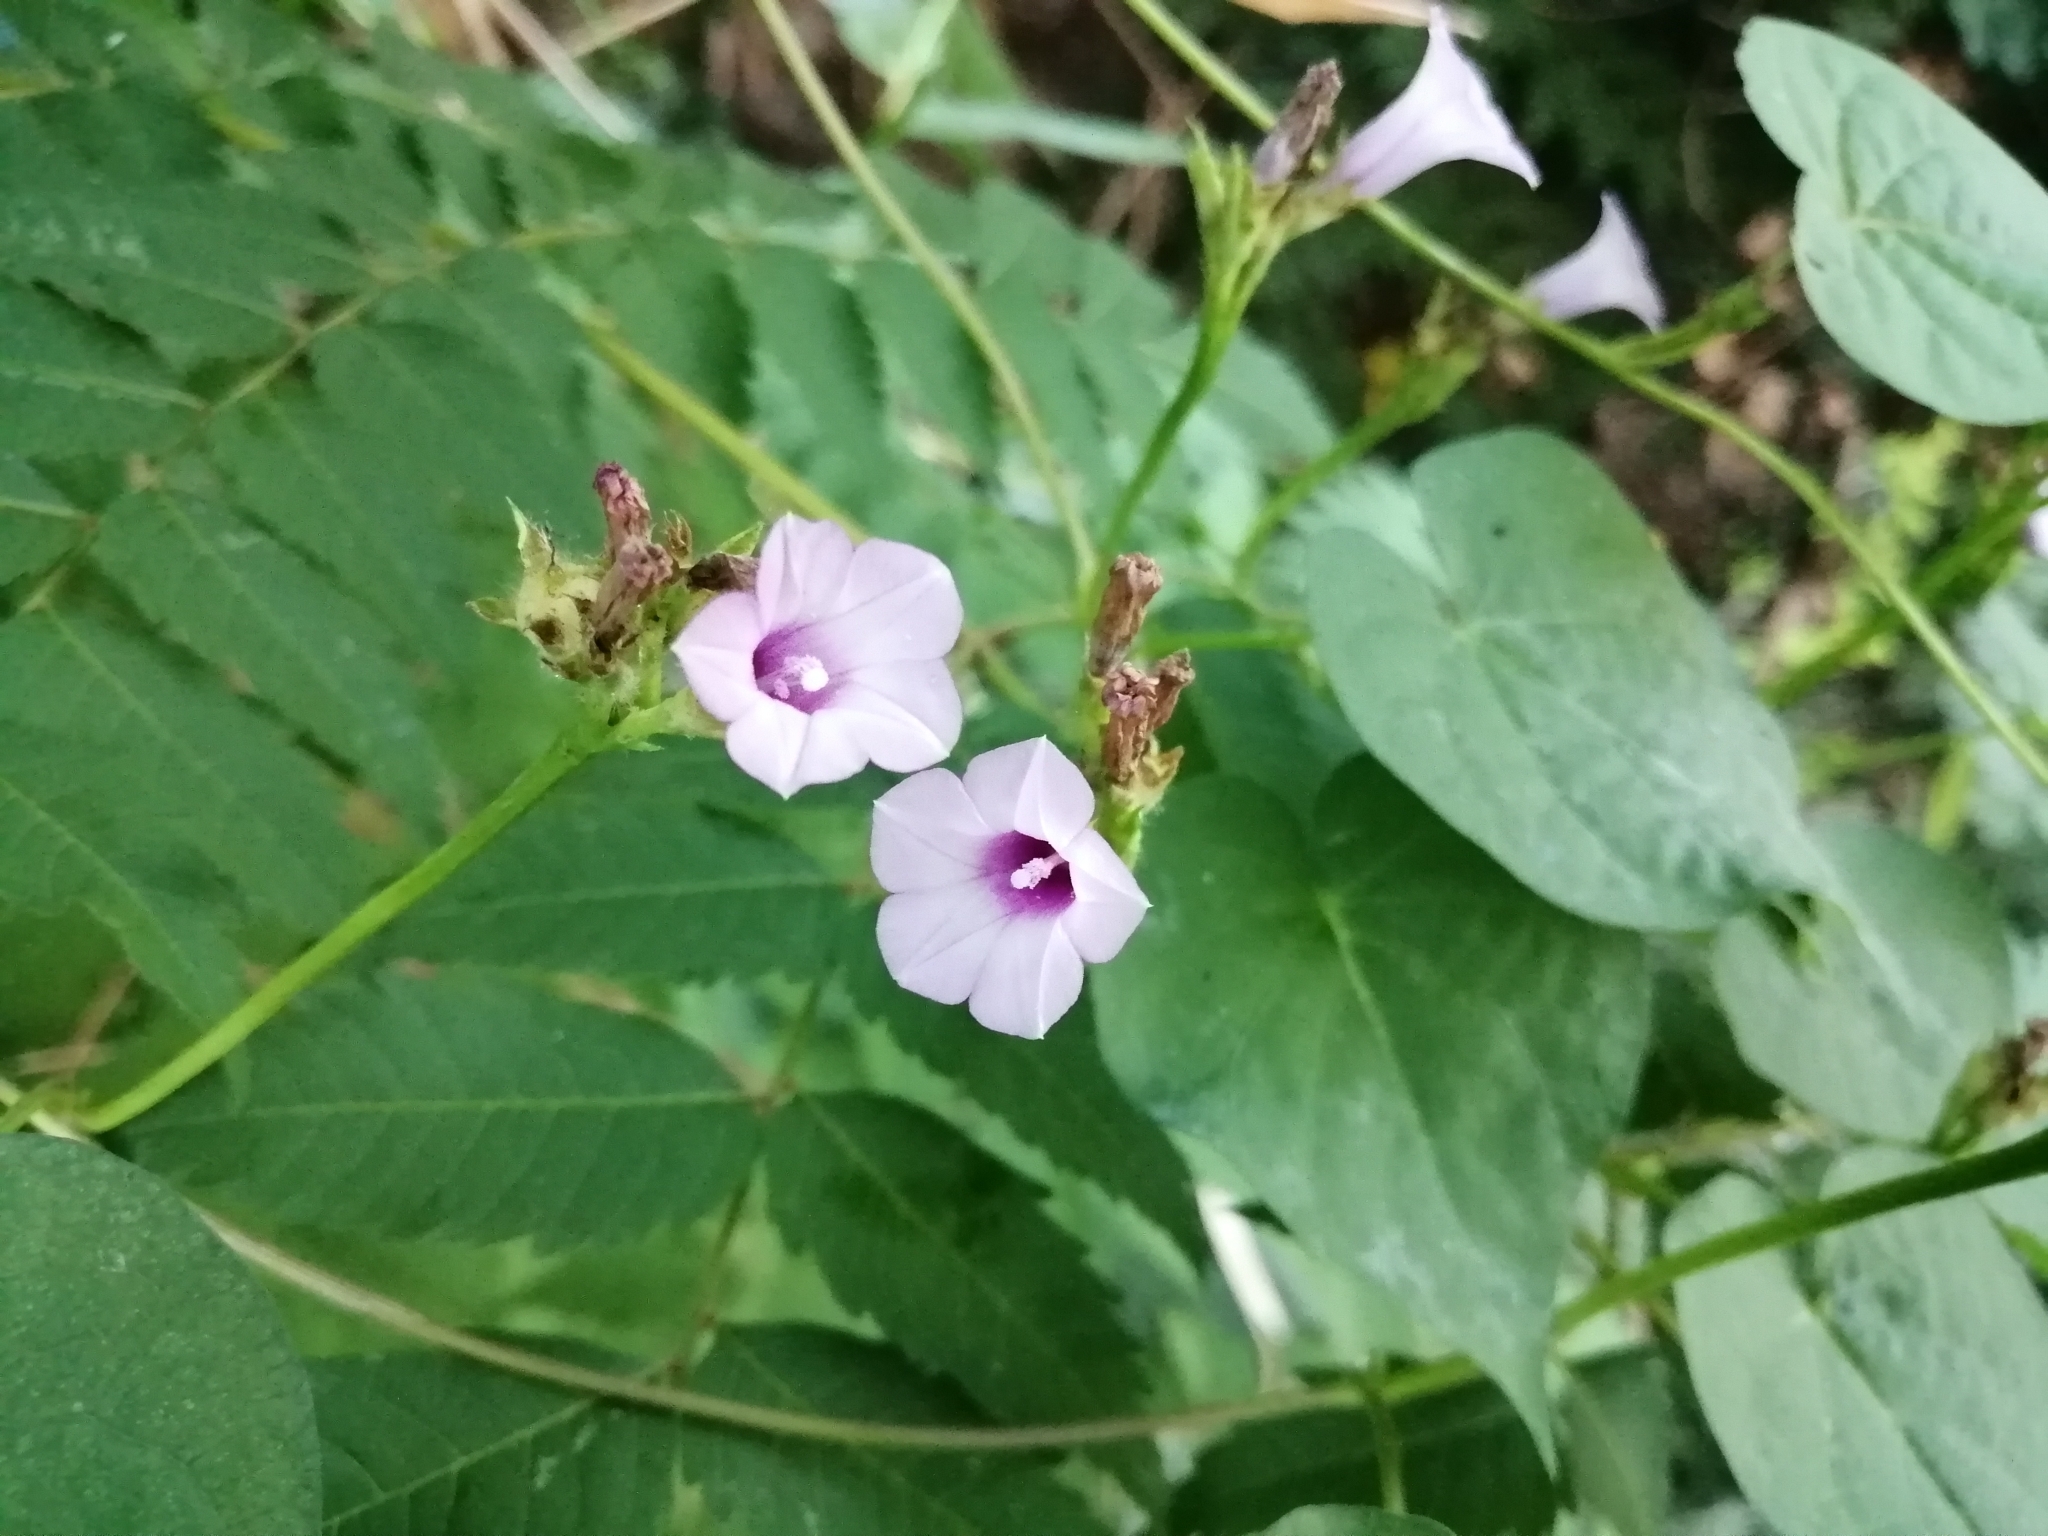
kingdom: Plantae
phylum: Tracheophyta
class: Magnoliopsida
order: Solanales
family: Convolvulaceae
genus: Ipomoea
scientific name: Ipomoea triloba
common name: Little-bell
